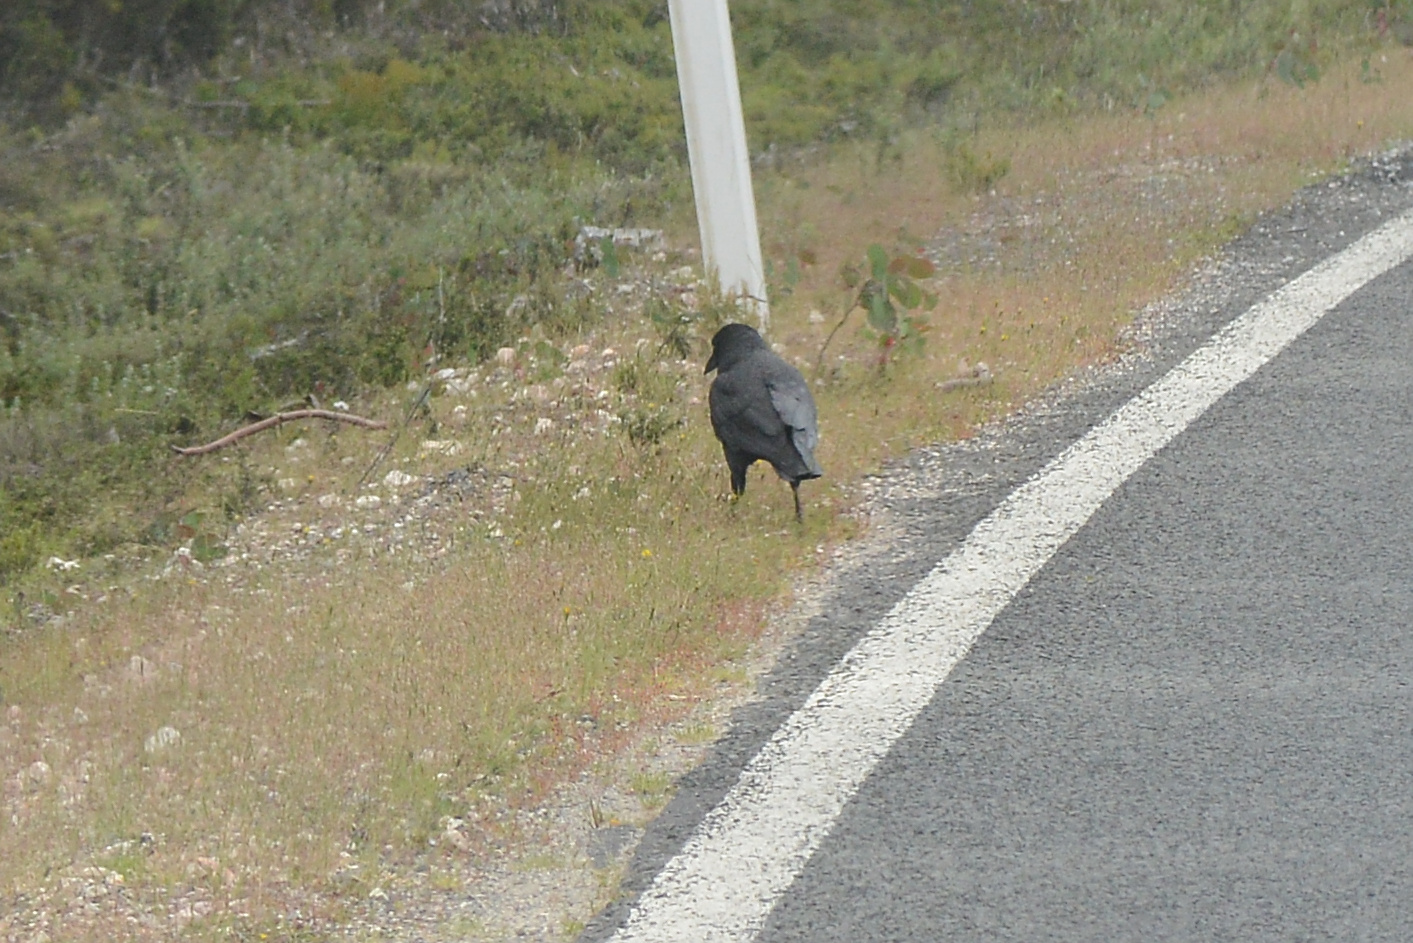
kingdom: Animalia
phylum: Chordata
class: Aves
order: Passeriformes
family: Corvidae
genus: Corvus
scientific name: Corvus tasmanicus
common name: Forest raven
